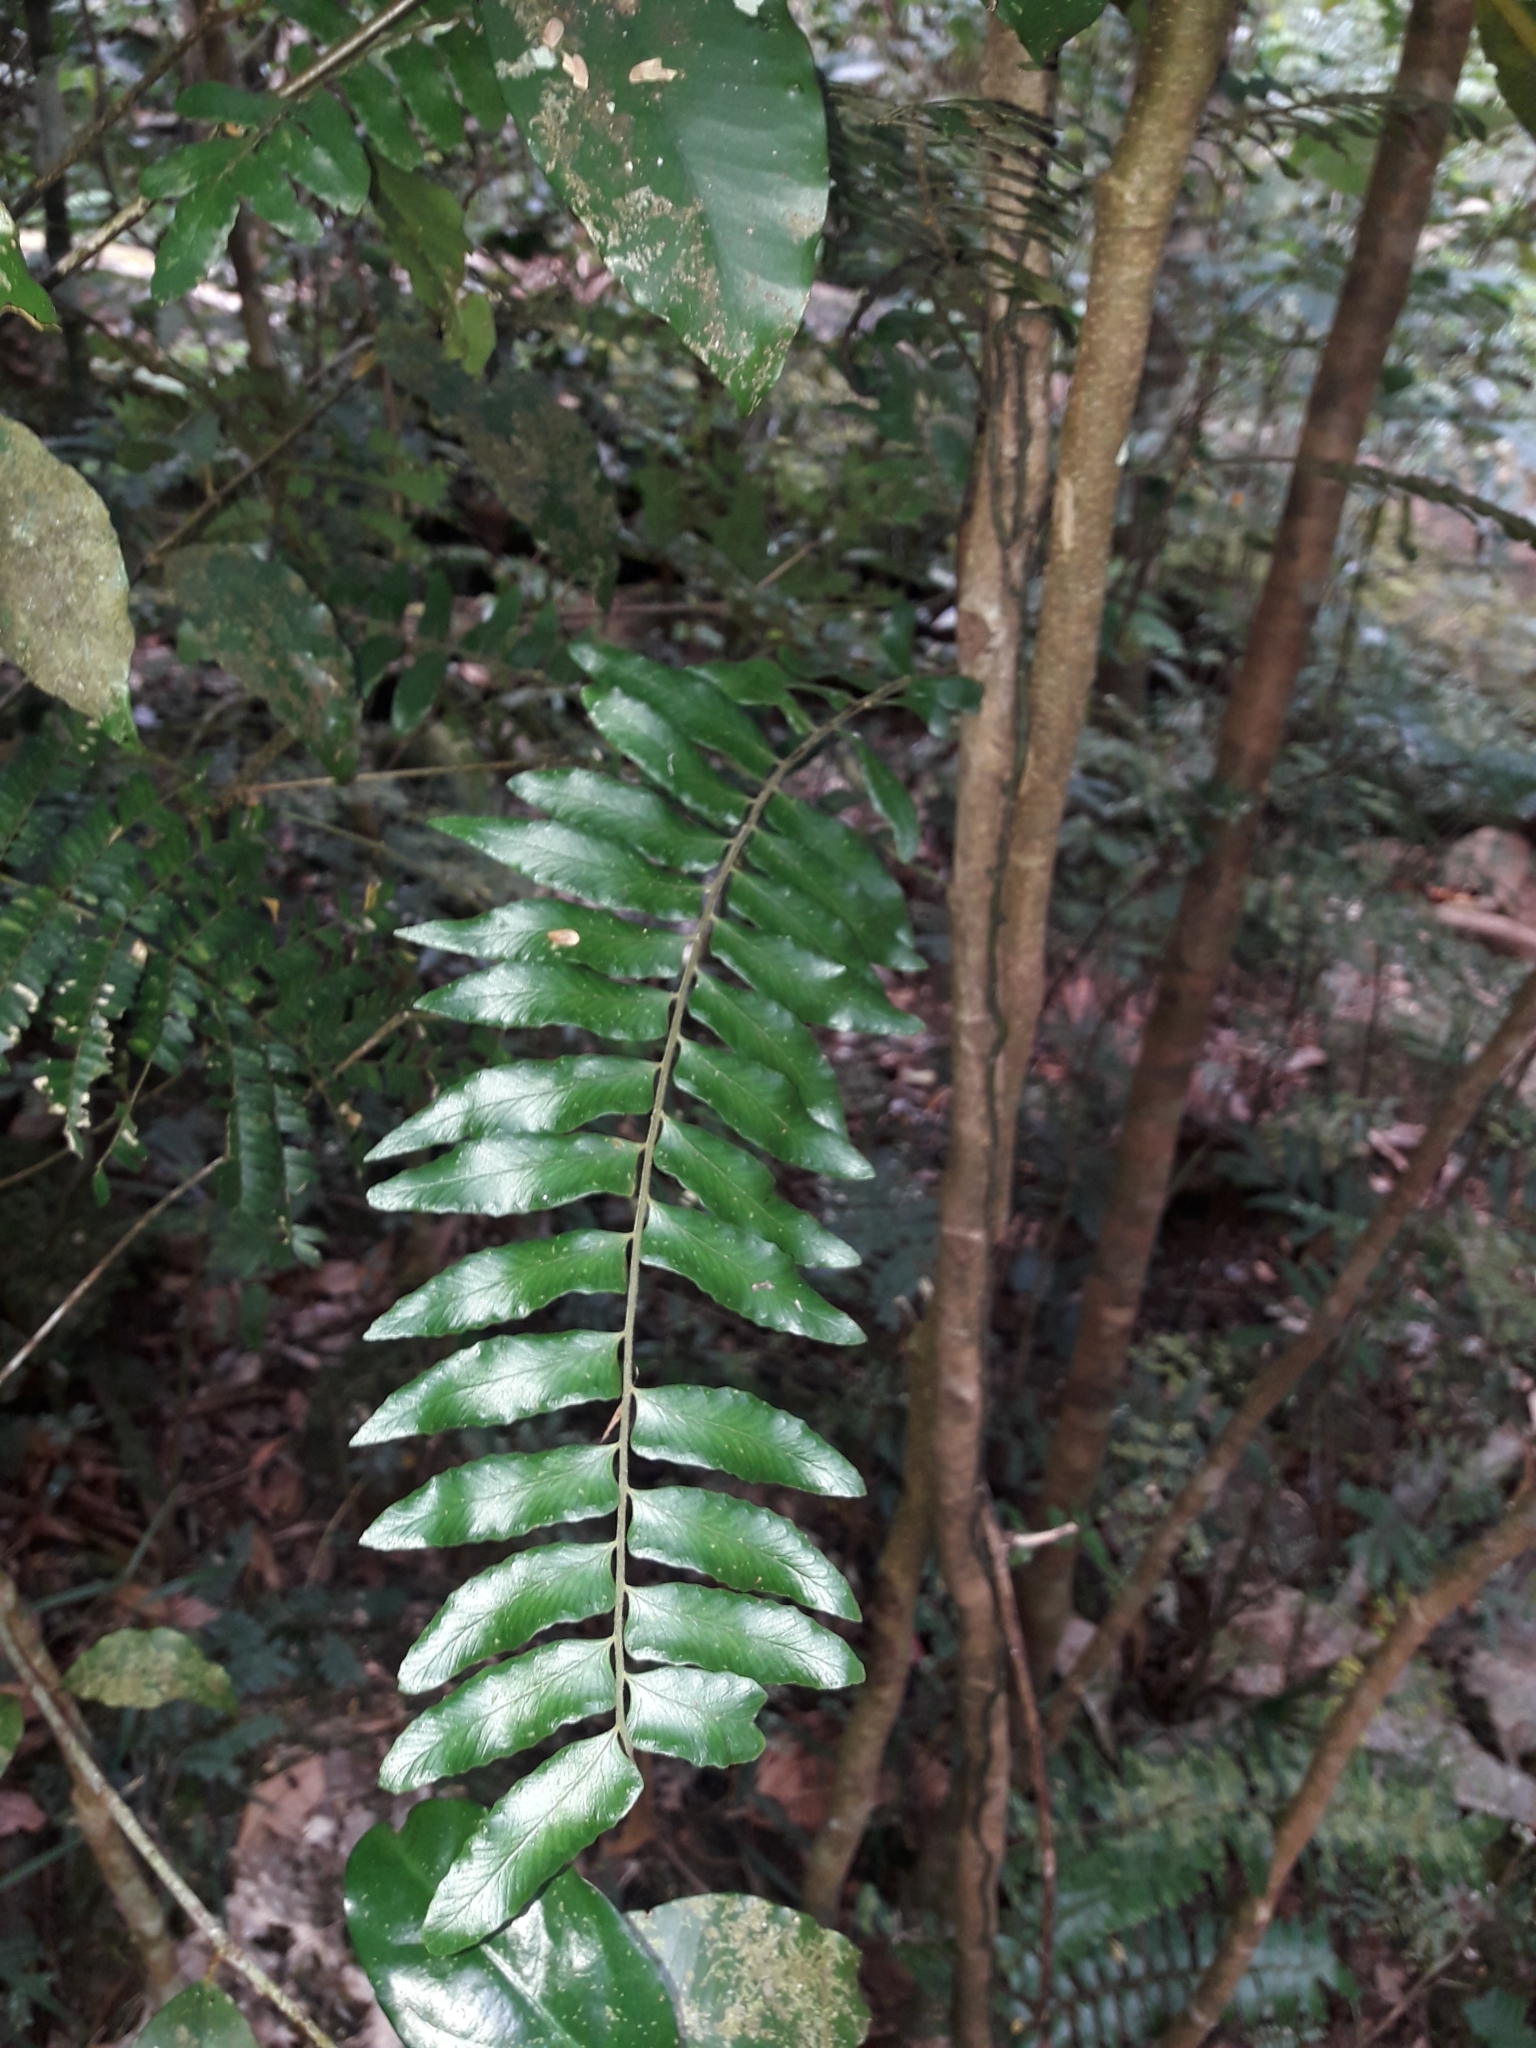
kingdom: Plantae
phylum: Tracheophyta
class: Polypodiopsida
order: Polypodiales
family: Tectariaceae
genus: Arthropteris
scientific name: Arthropteris neocaledonica
